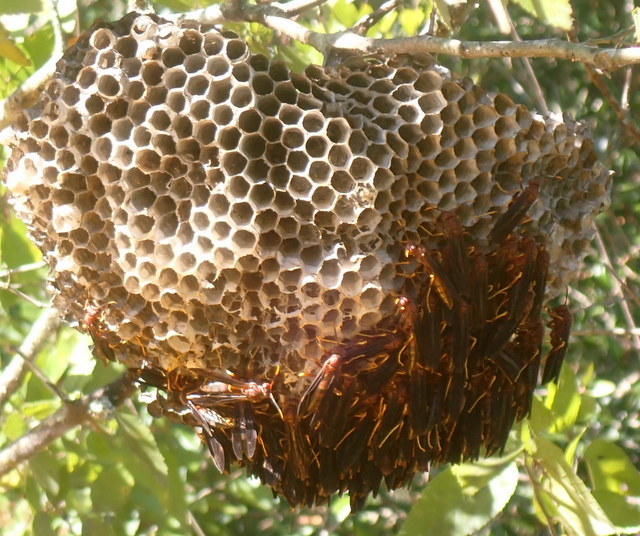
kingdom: Animalia
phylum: Arthropoda
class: Insecta
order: Hymenoptera
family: Eumenidae
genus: Polistes
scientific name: Polistes annularis
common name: Ringed paper wasp
